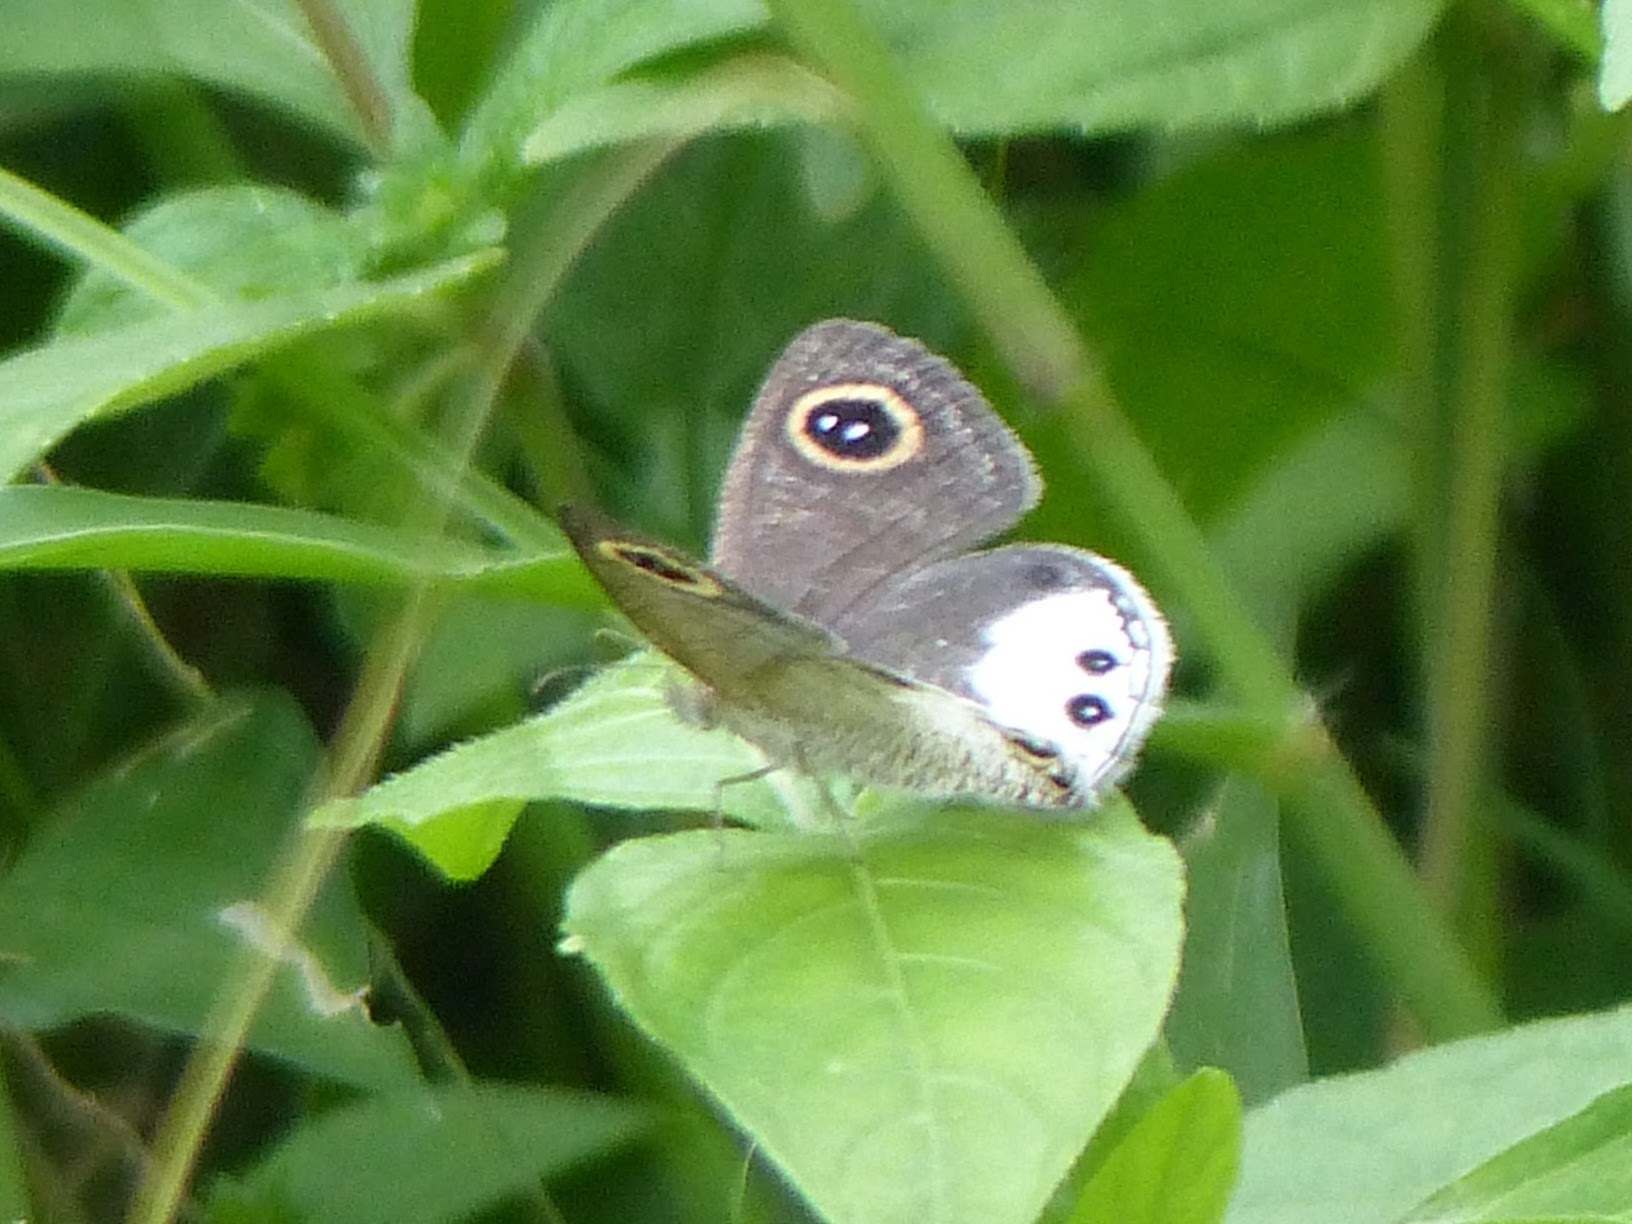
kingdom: Animalia
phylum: Arthropoda
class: Insecta
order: Lepidoptera
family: Nymphalidae
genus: Ypthima
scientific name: Ypthima ceylonica
